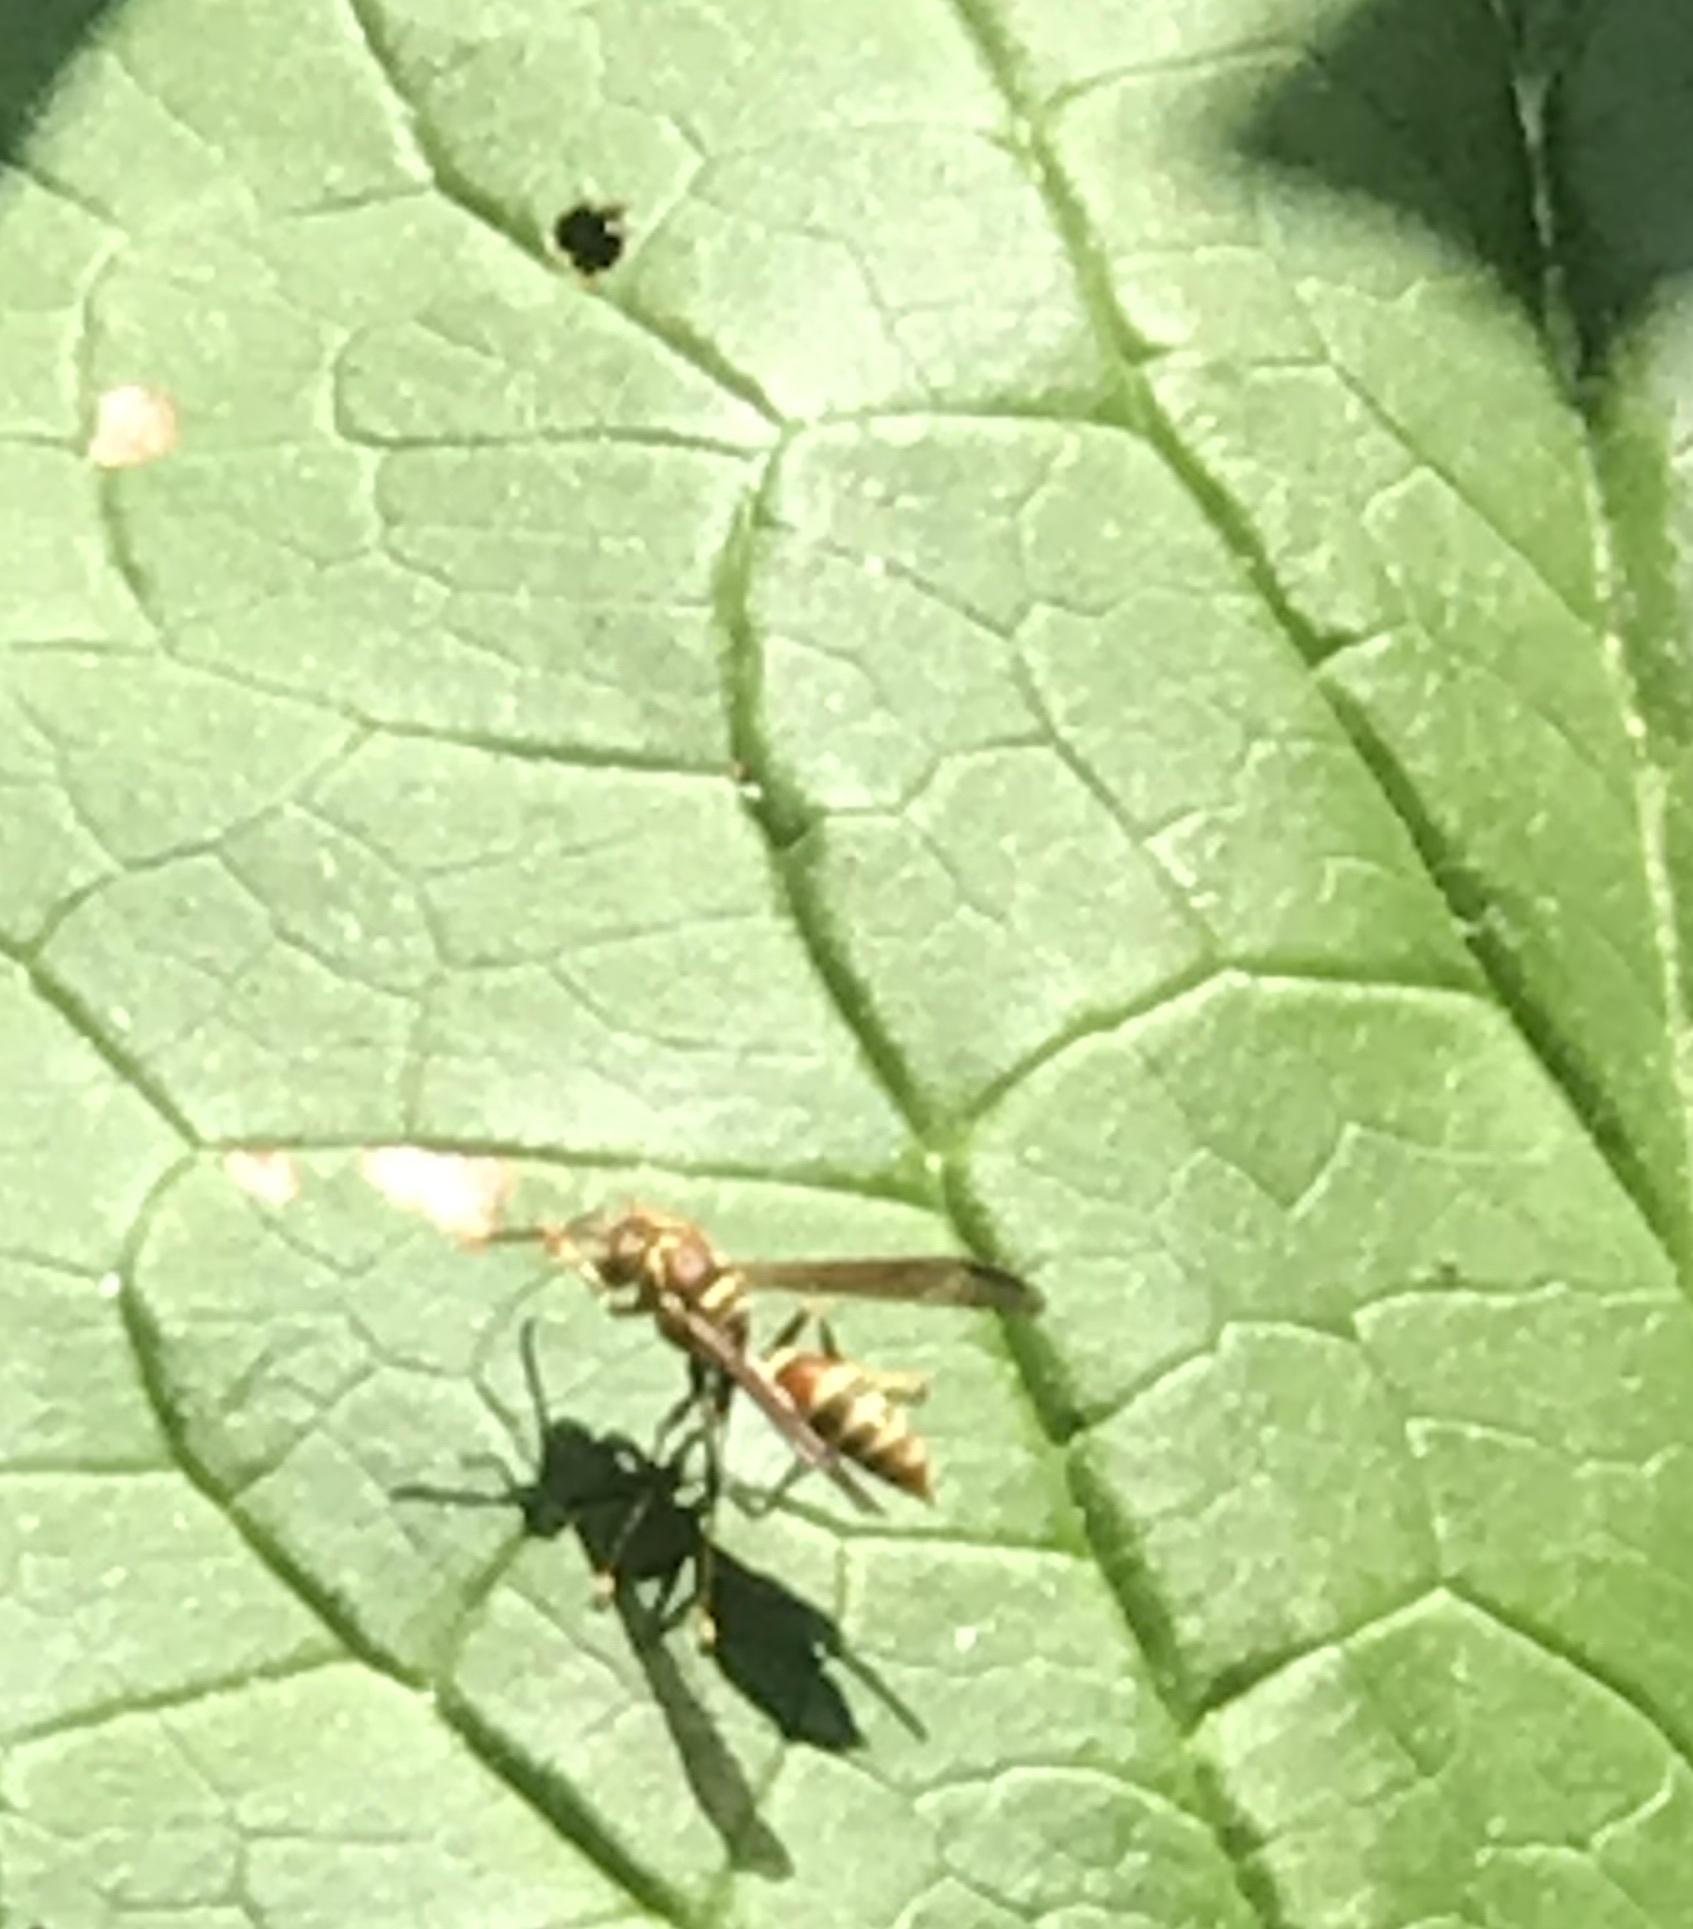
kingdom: Animalia
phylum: Arthropoda
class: Insecta
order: Hymenoptera
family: Eumenidae
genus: Polistes
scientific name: Polistes exclamans
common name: Paper wasp
